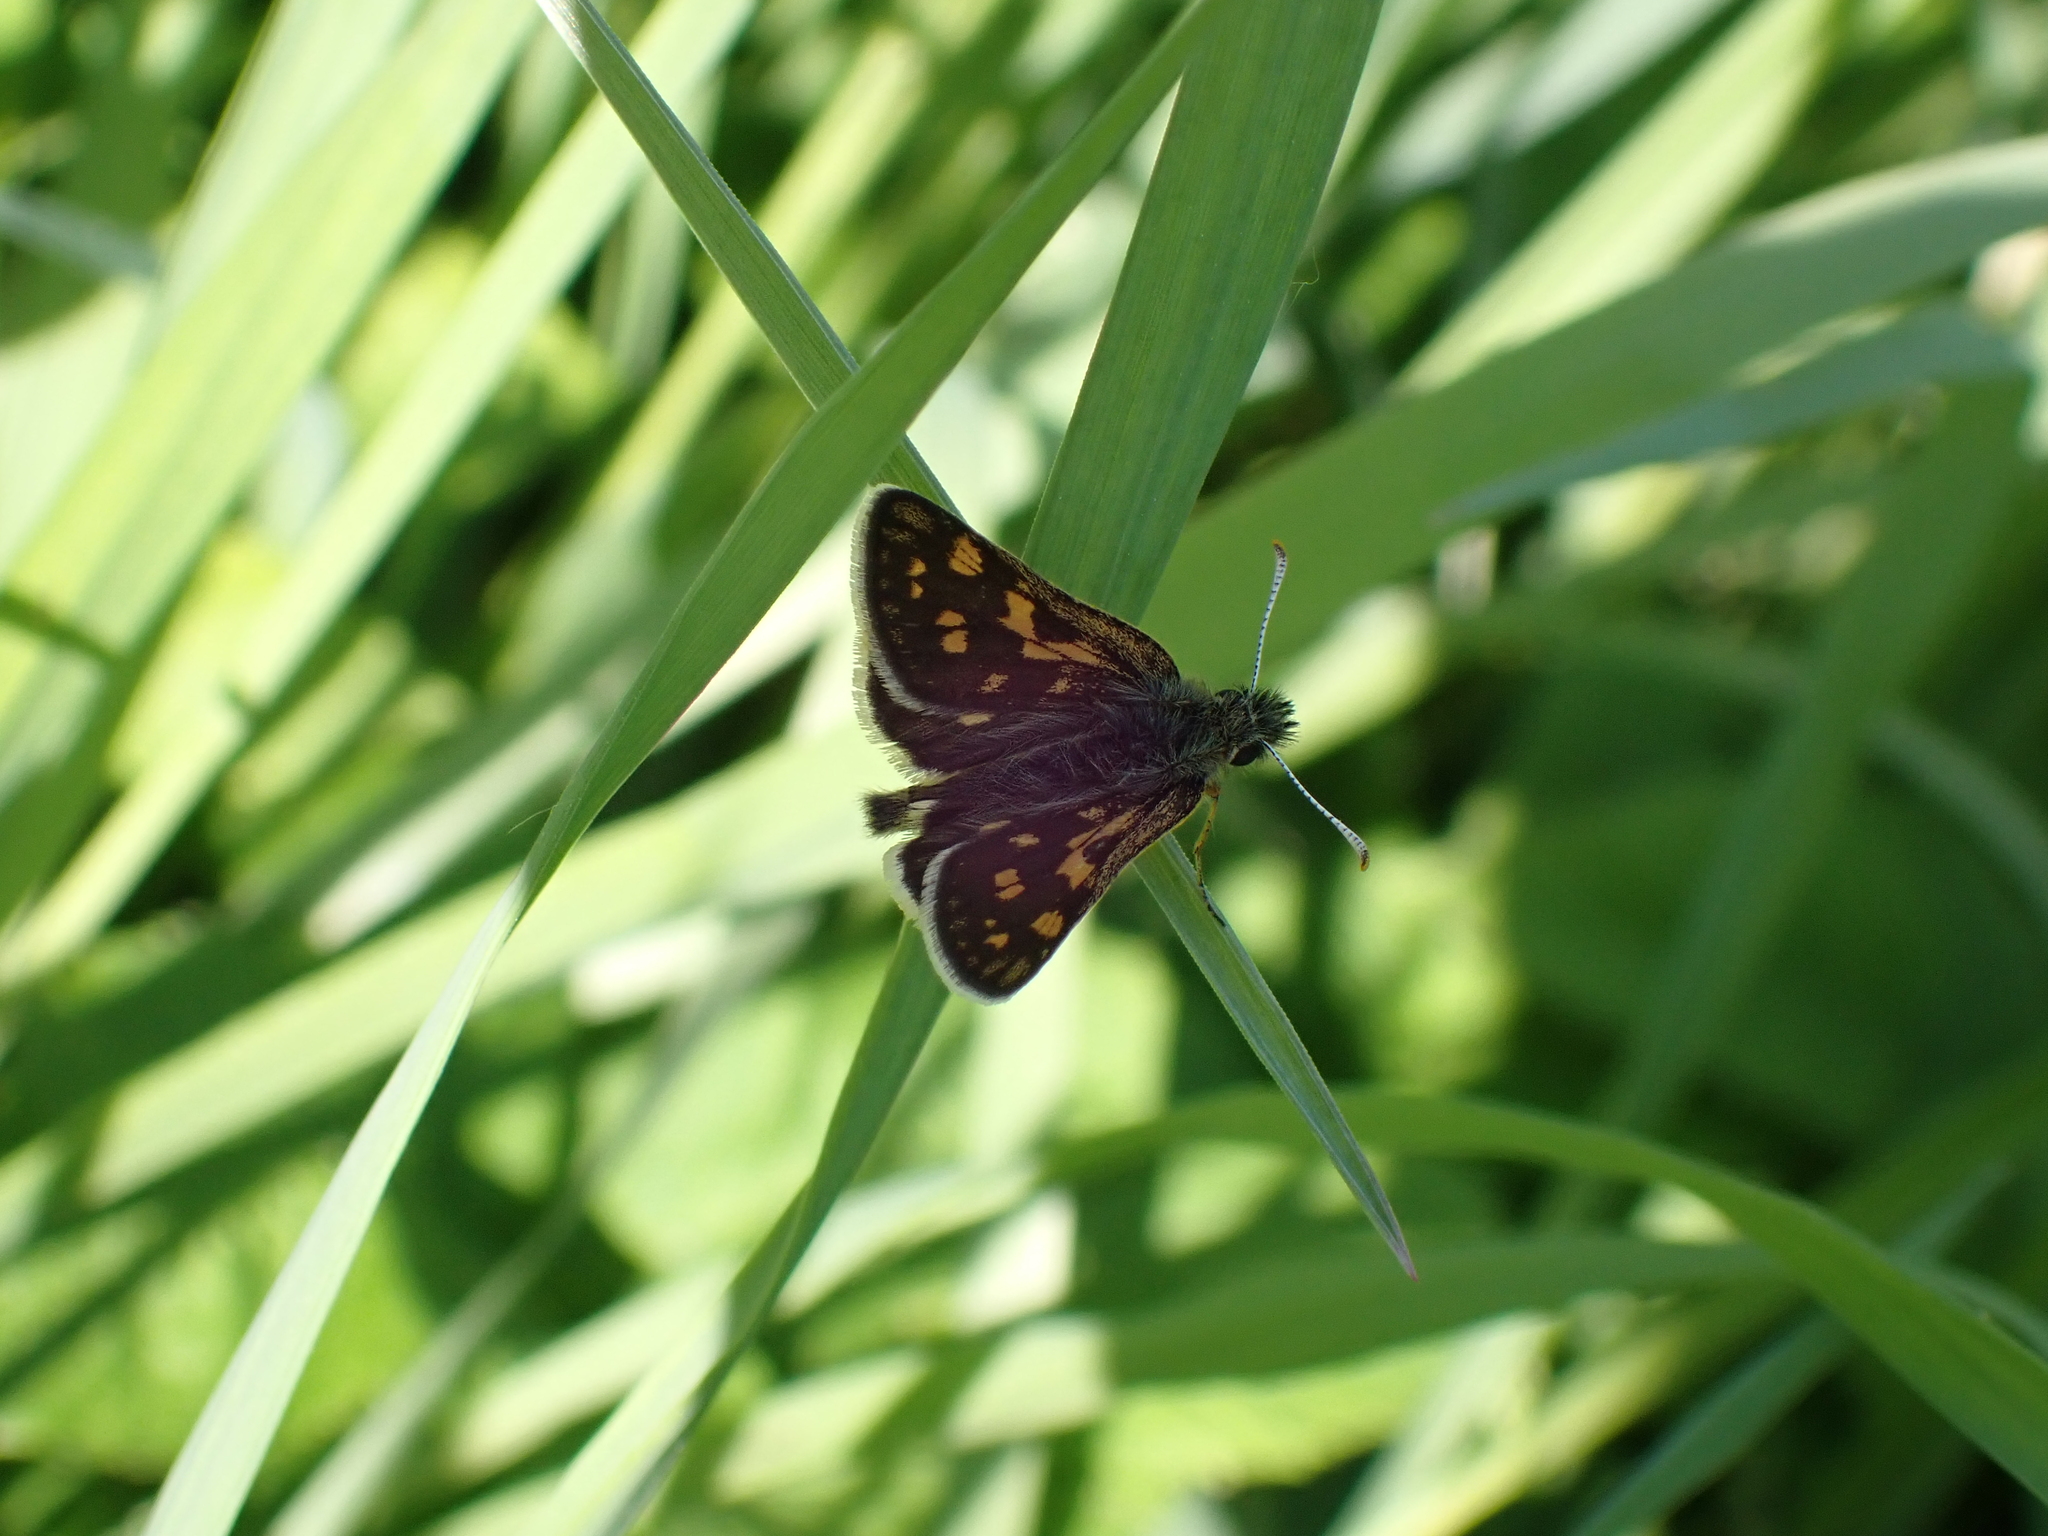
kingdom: Animalia
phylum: Arthropoda
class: Insecta
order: Lepidoptera
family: Hesperiidae
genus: Carterocephalus
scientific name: Carterocephalus palaemon
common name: Chequered skipper
